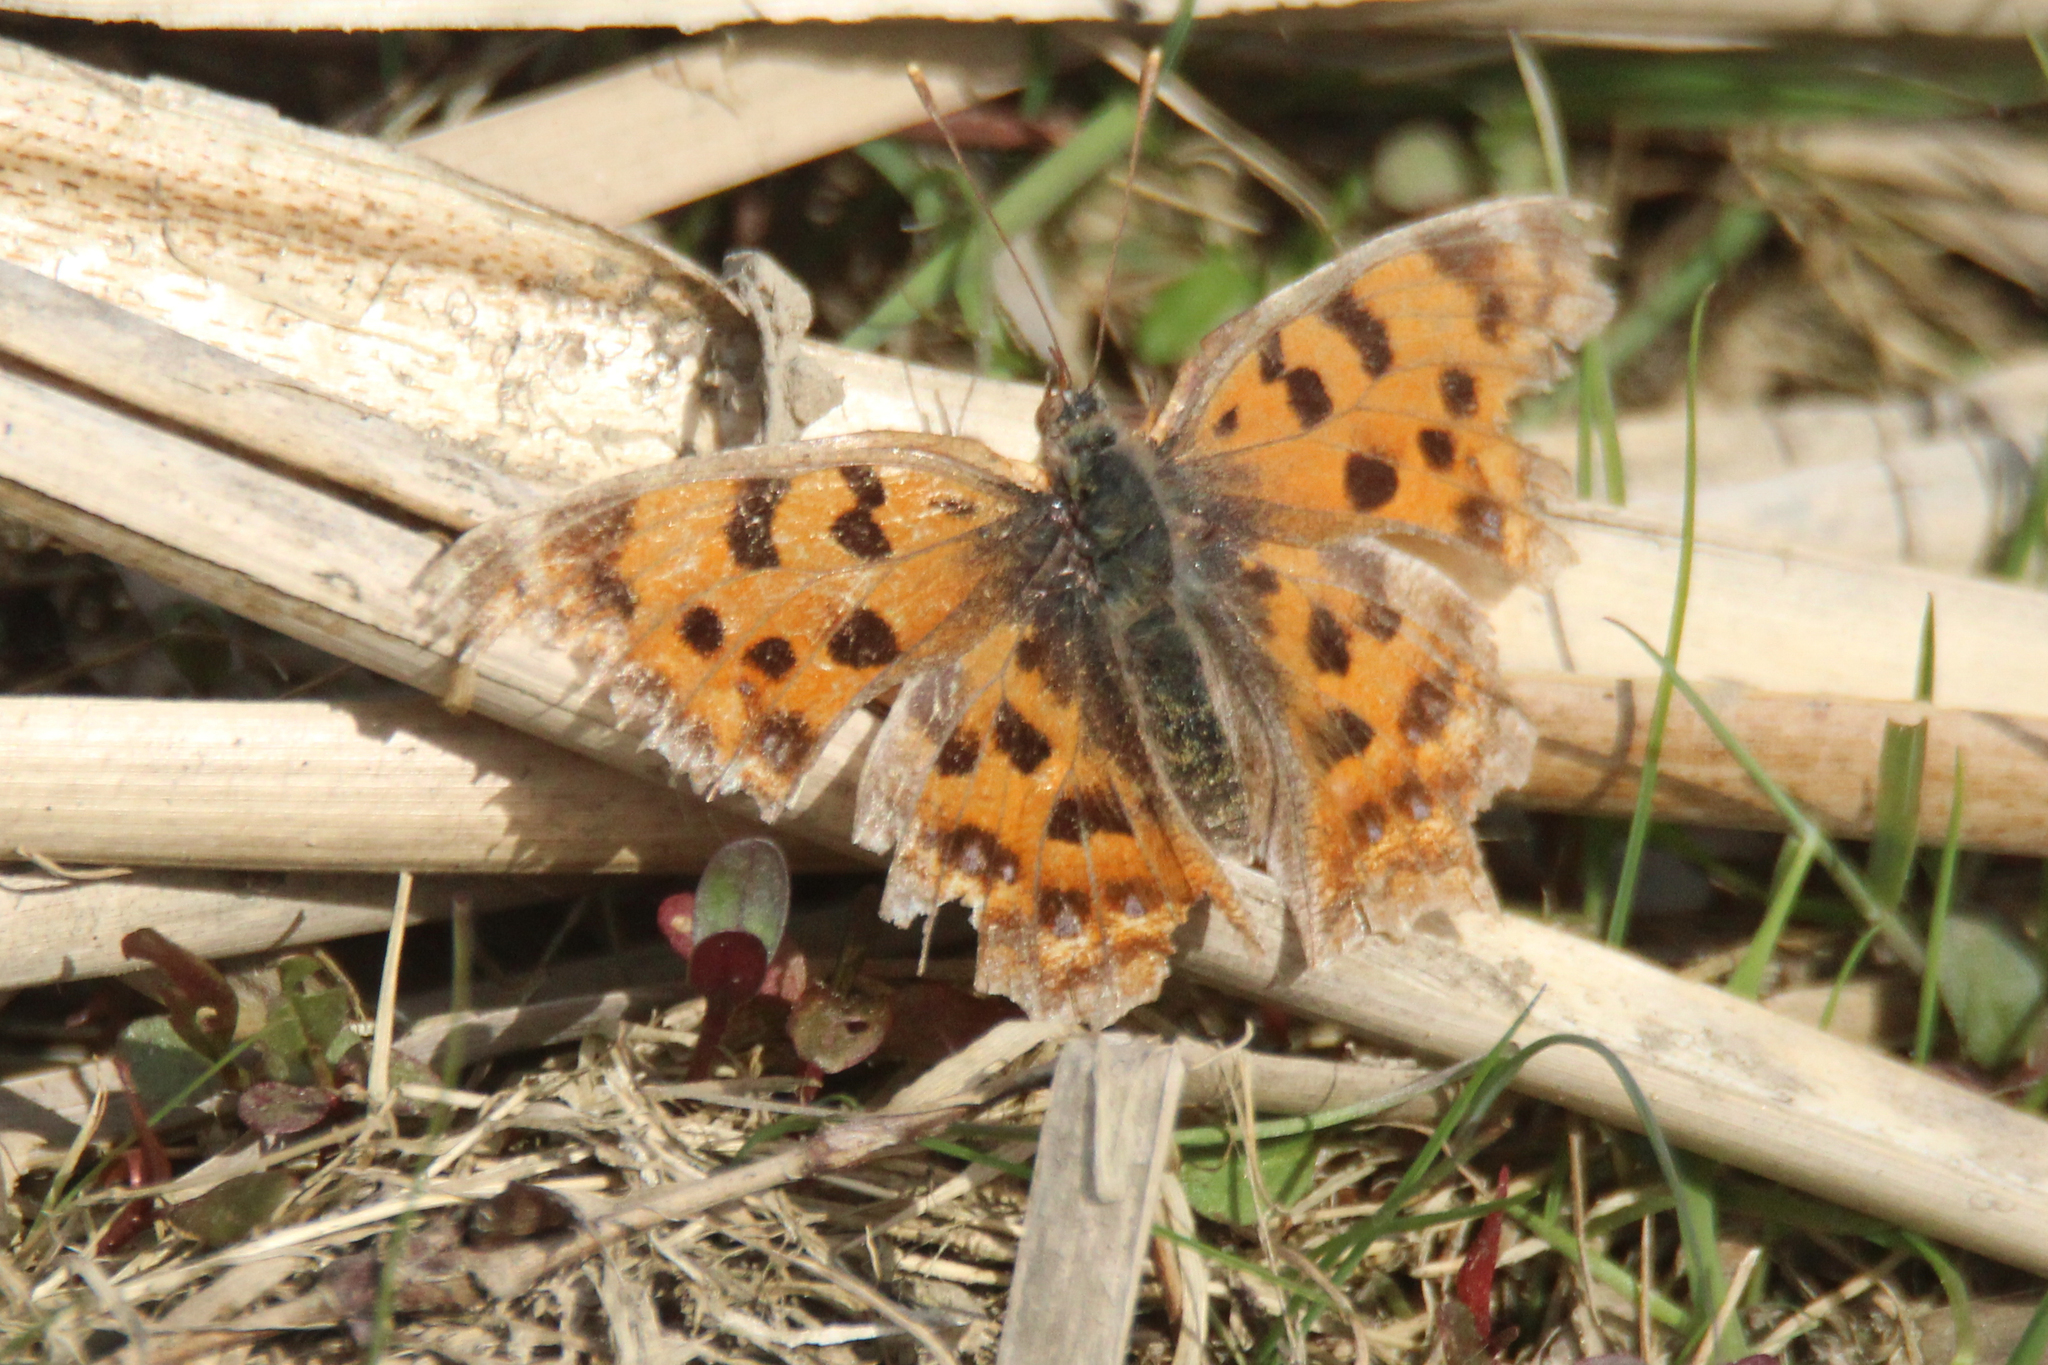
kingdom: Animalia
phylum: Arthropoda
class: Insecta
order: Lepidoptera
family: Nymphalidae
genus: Polygonia
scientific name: Polygonia c-aureum
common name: Asian comma
